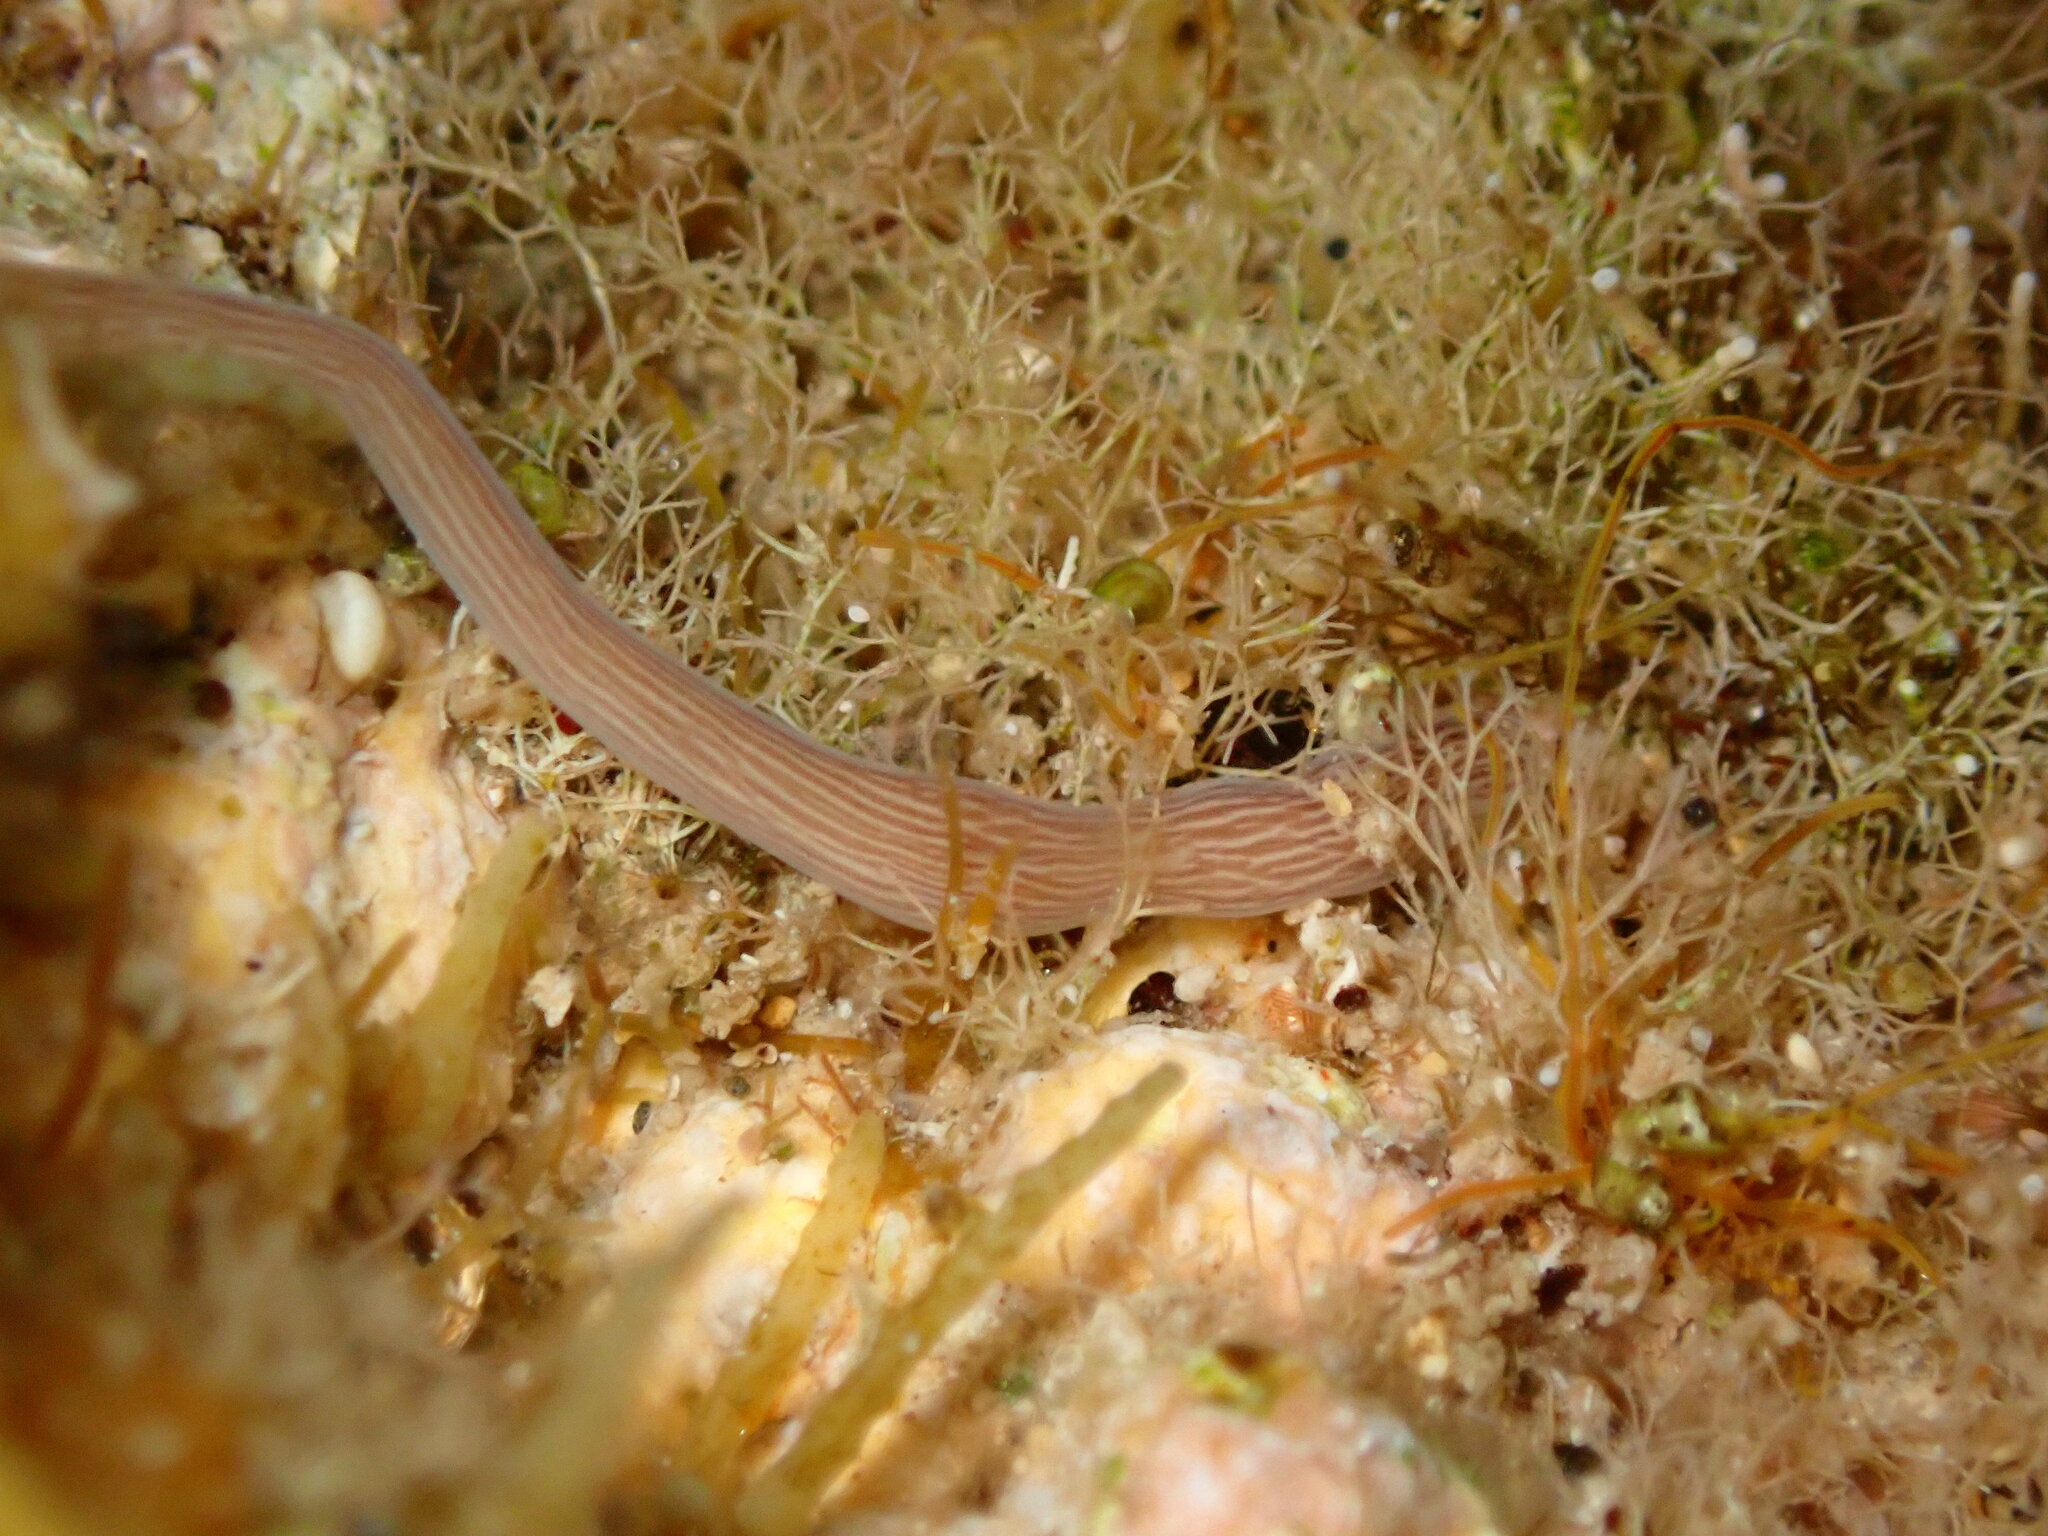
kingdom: Animalia
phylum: Nemertea
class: Pilidiophora
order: Heteronemertea
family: Valenciniidae
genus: Baseodiscus
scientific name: Baseodiscus delineatus
